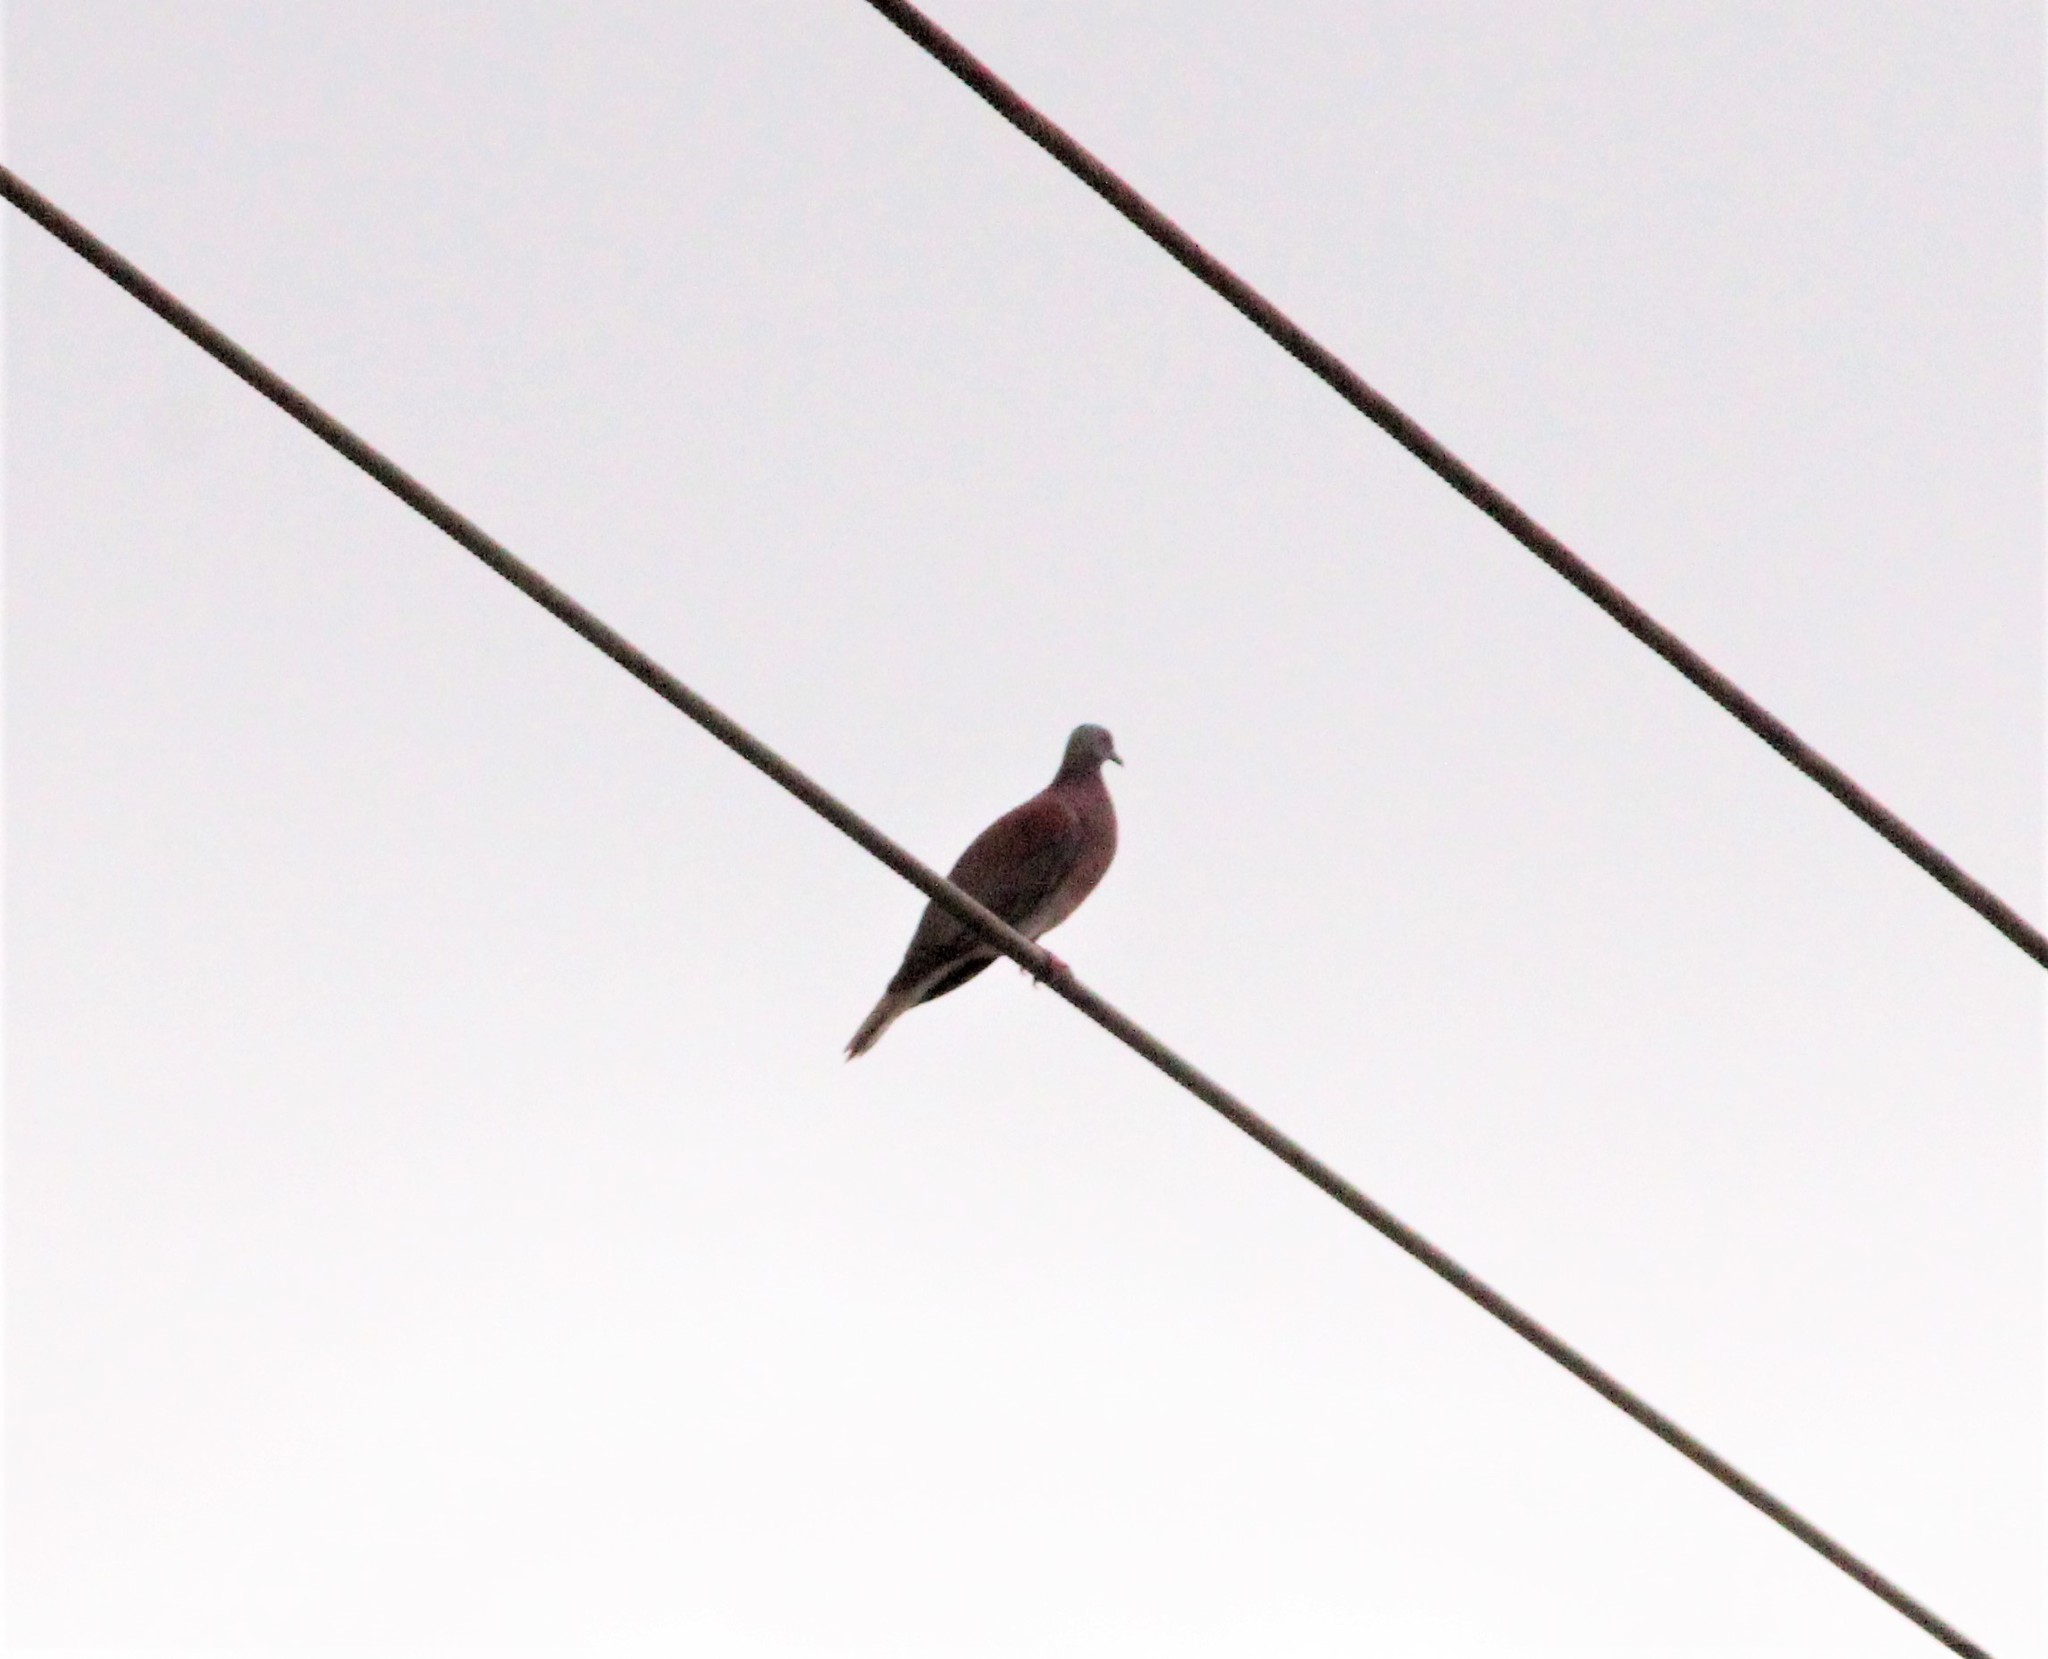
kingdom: Animalia
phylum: Chordata
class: Aves
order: Columbiformes
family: Columbidae
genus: Patagioenas
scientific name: Patagioenas cayennensis
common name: Pale-vented pigeon
